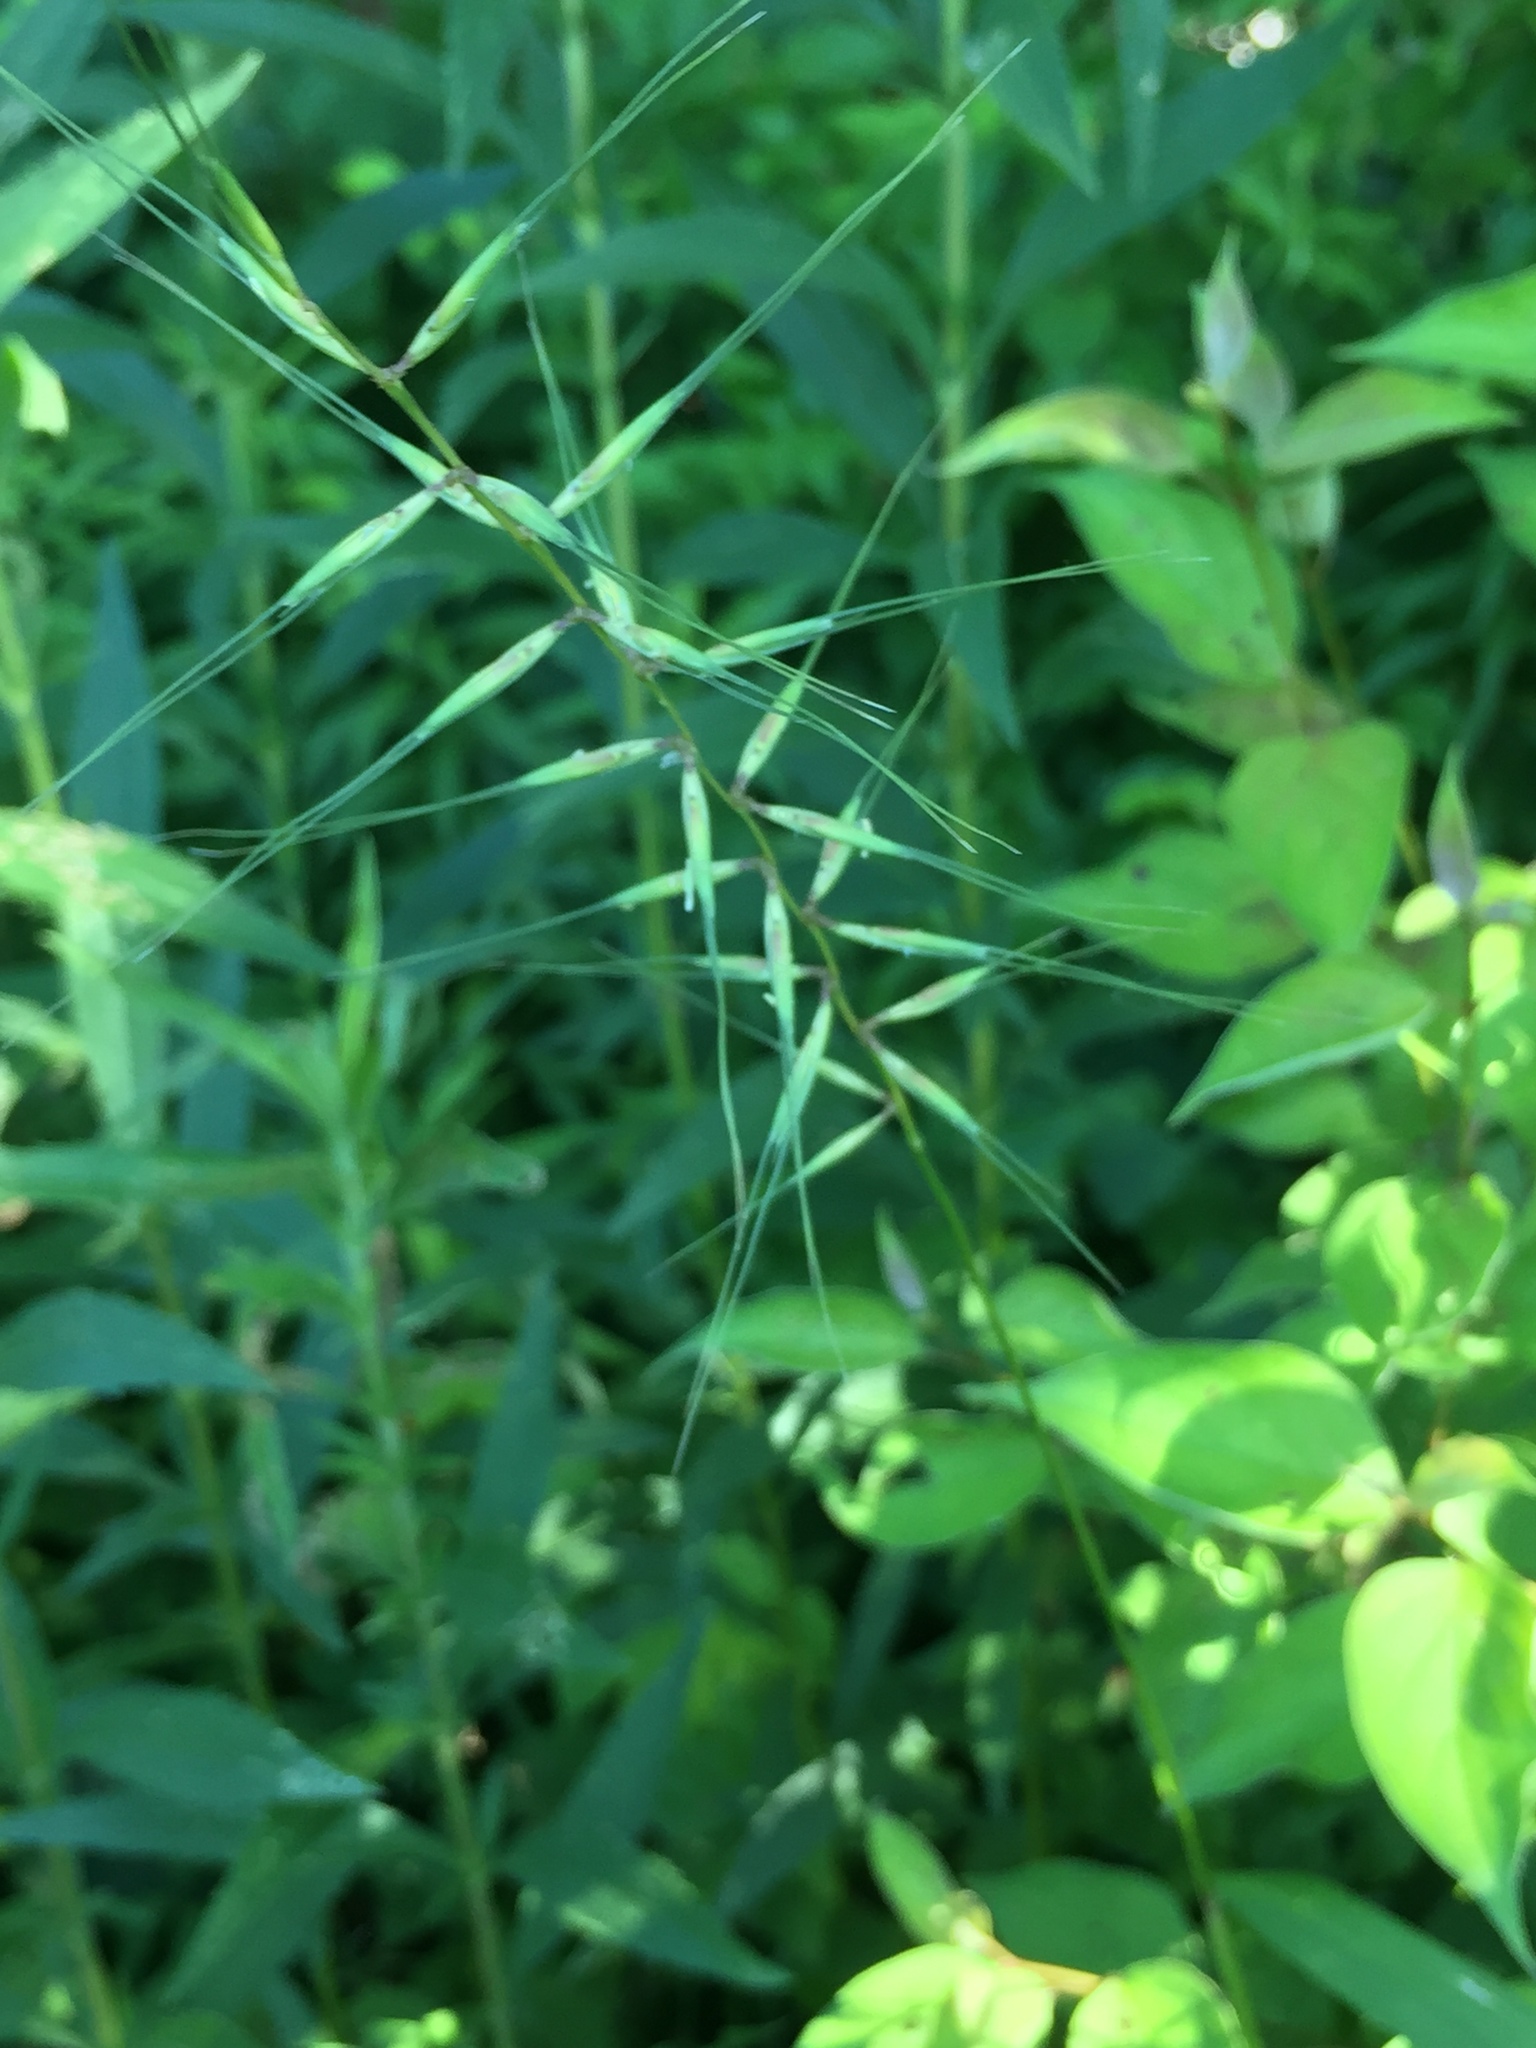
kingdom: Plantae
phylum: Tracheophyta
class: Liliopsida
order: Poales
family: Poaceae
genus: Elymus
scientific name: Elymus hystrix
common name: Bottlebrush grass
